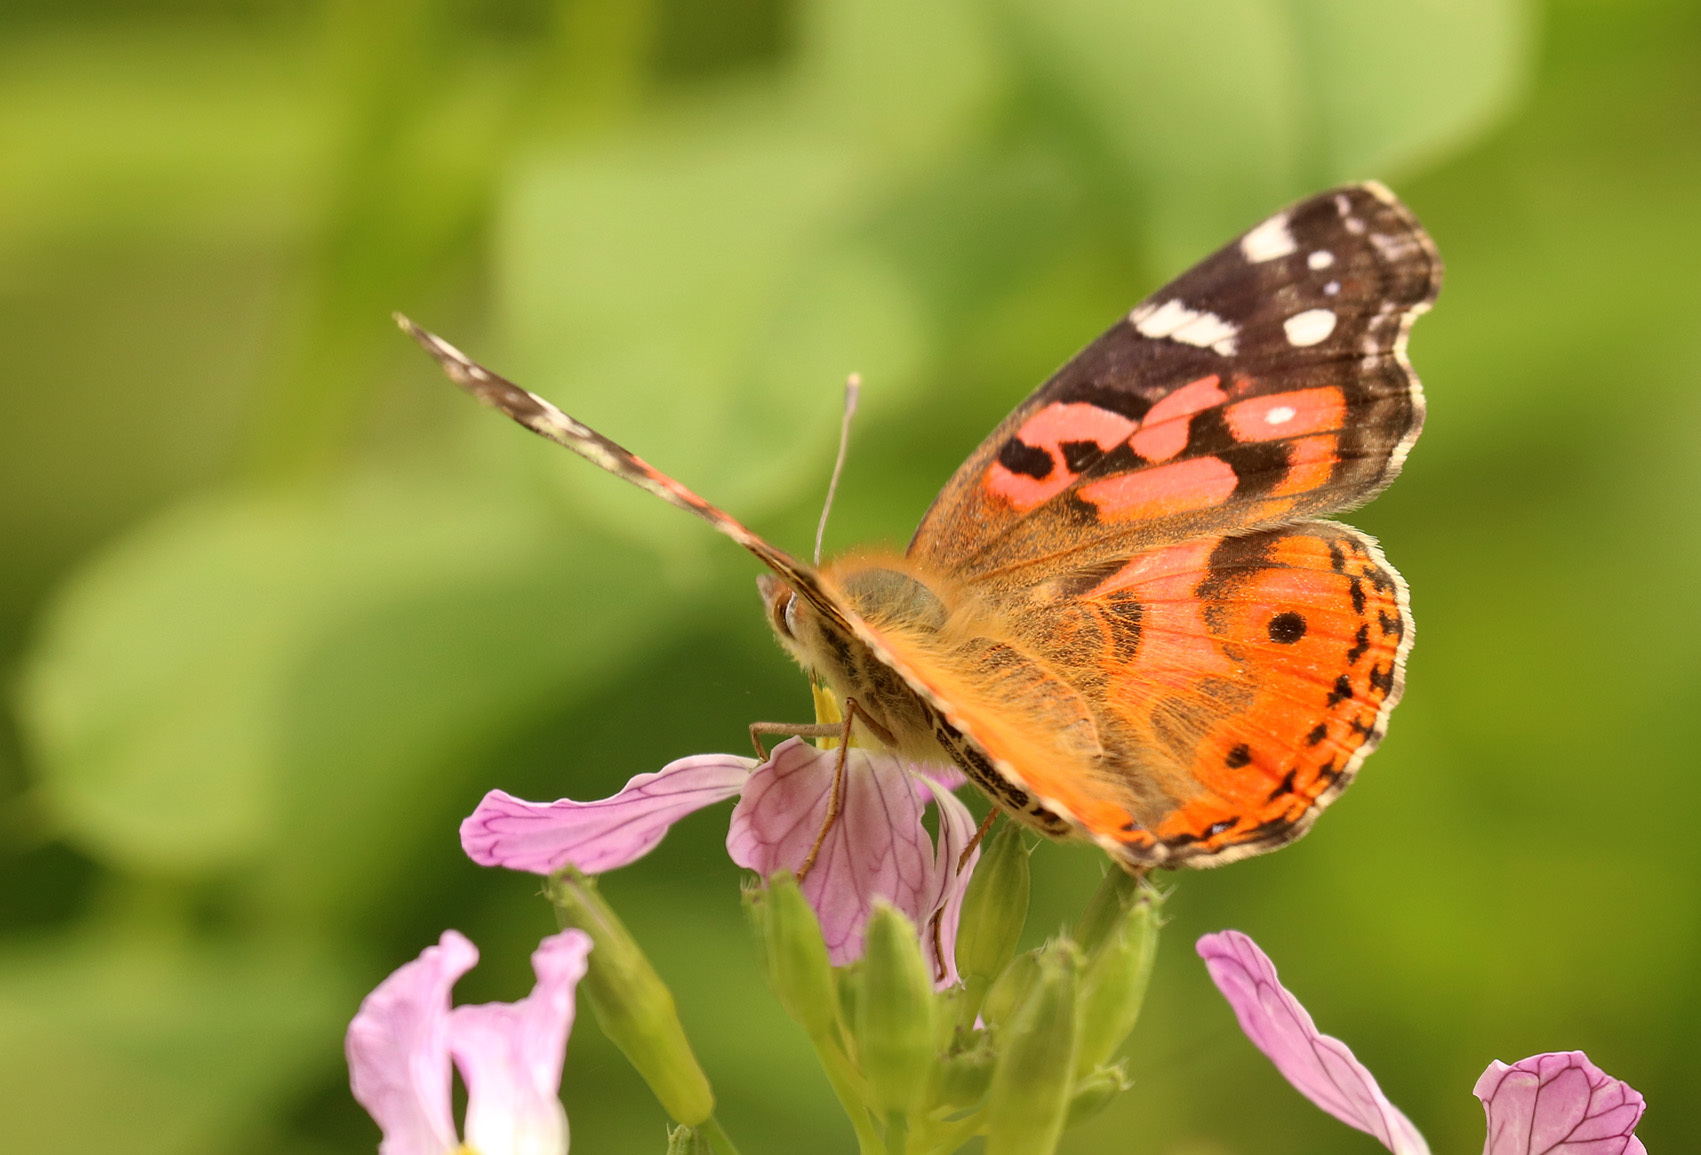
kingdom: Animalia
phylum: Arthropoda
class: Insecta
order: Lepidoptera
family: Nymphalidae
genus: Vanessa
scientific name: Vanessa braziliensis
